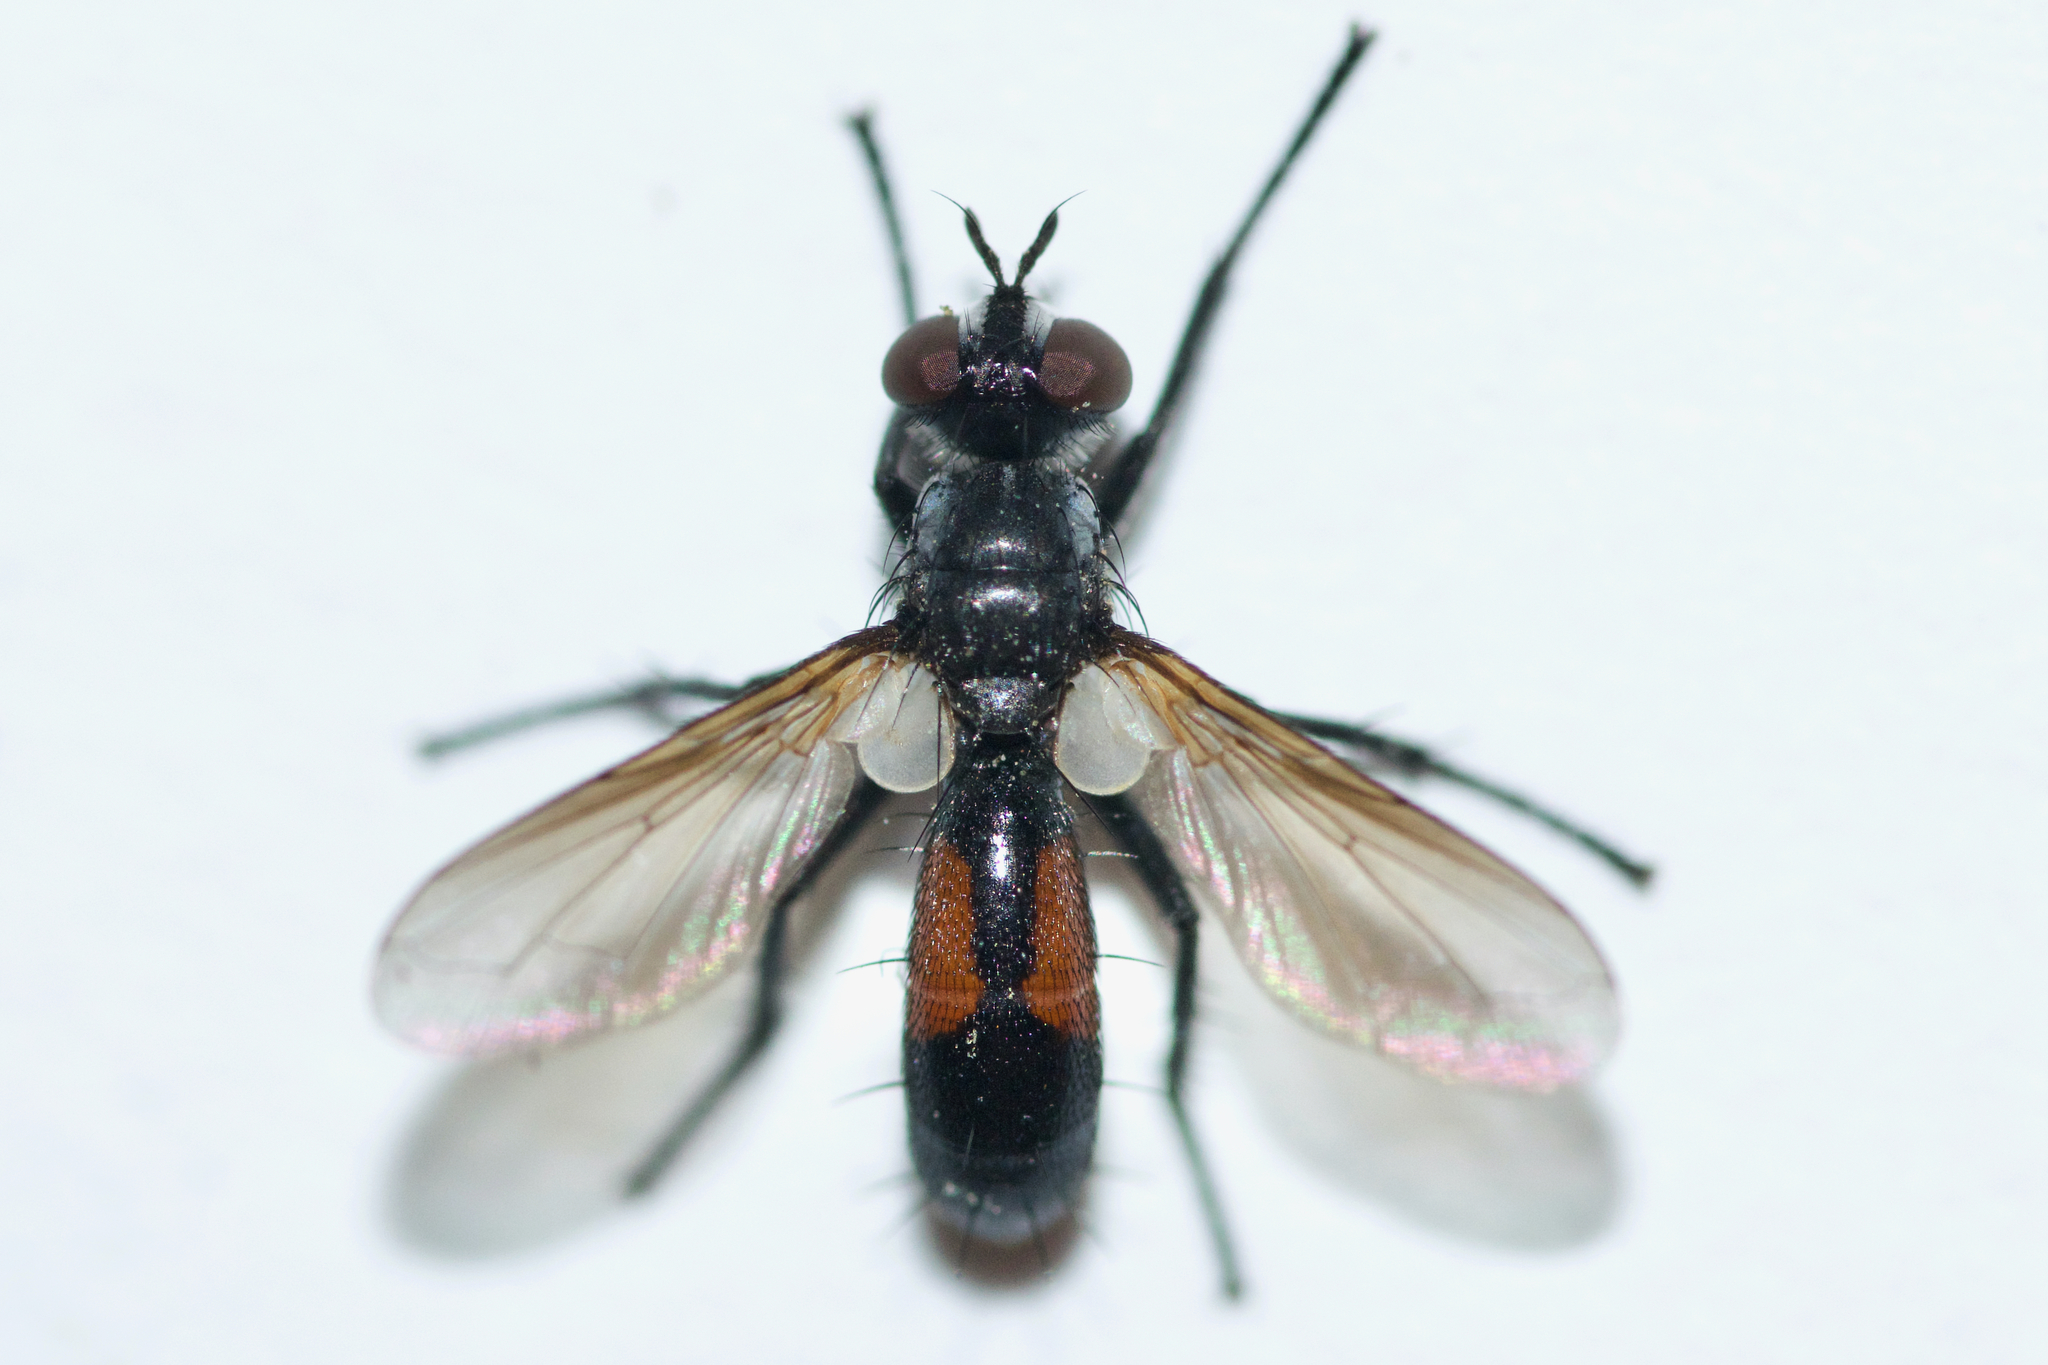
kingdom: Animalia
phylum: Arthropoda
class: Insecta
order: Diptera
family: Tachinidae
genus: Cylindromyia
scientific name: Cylindromyia interrupta
